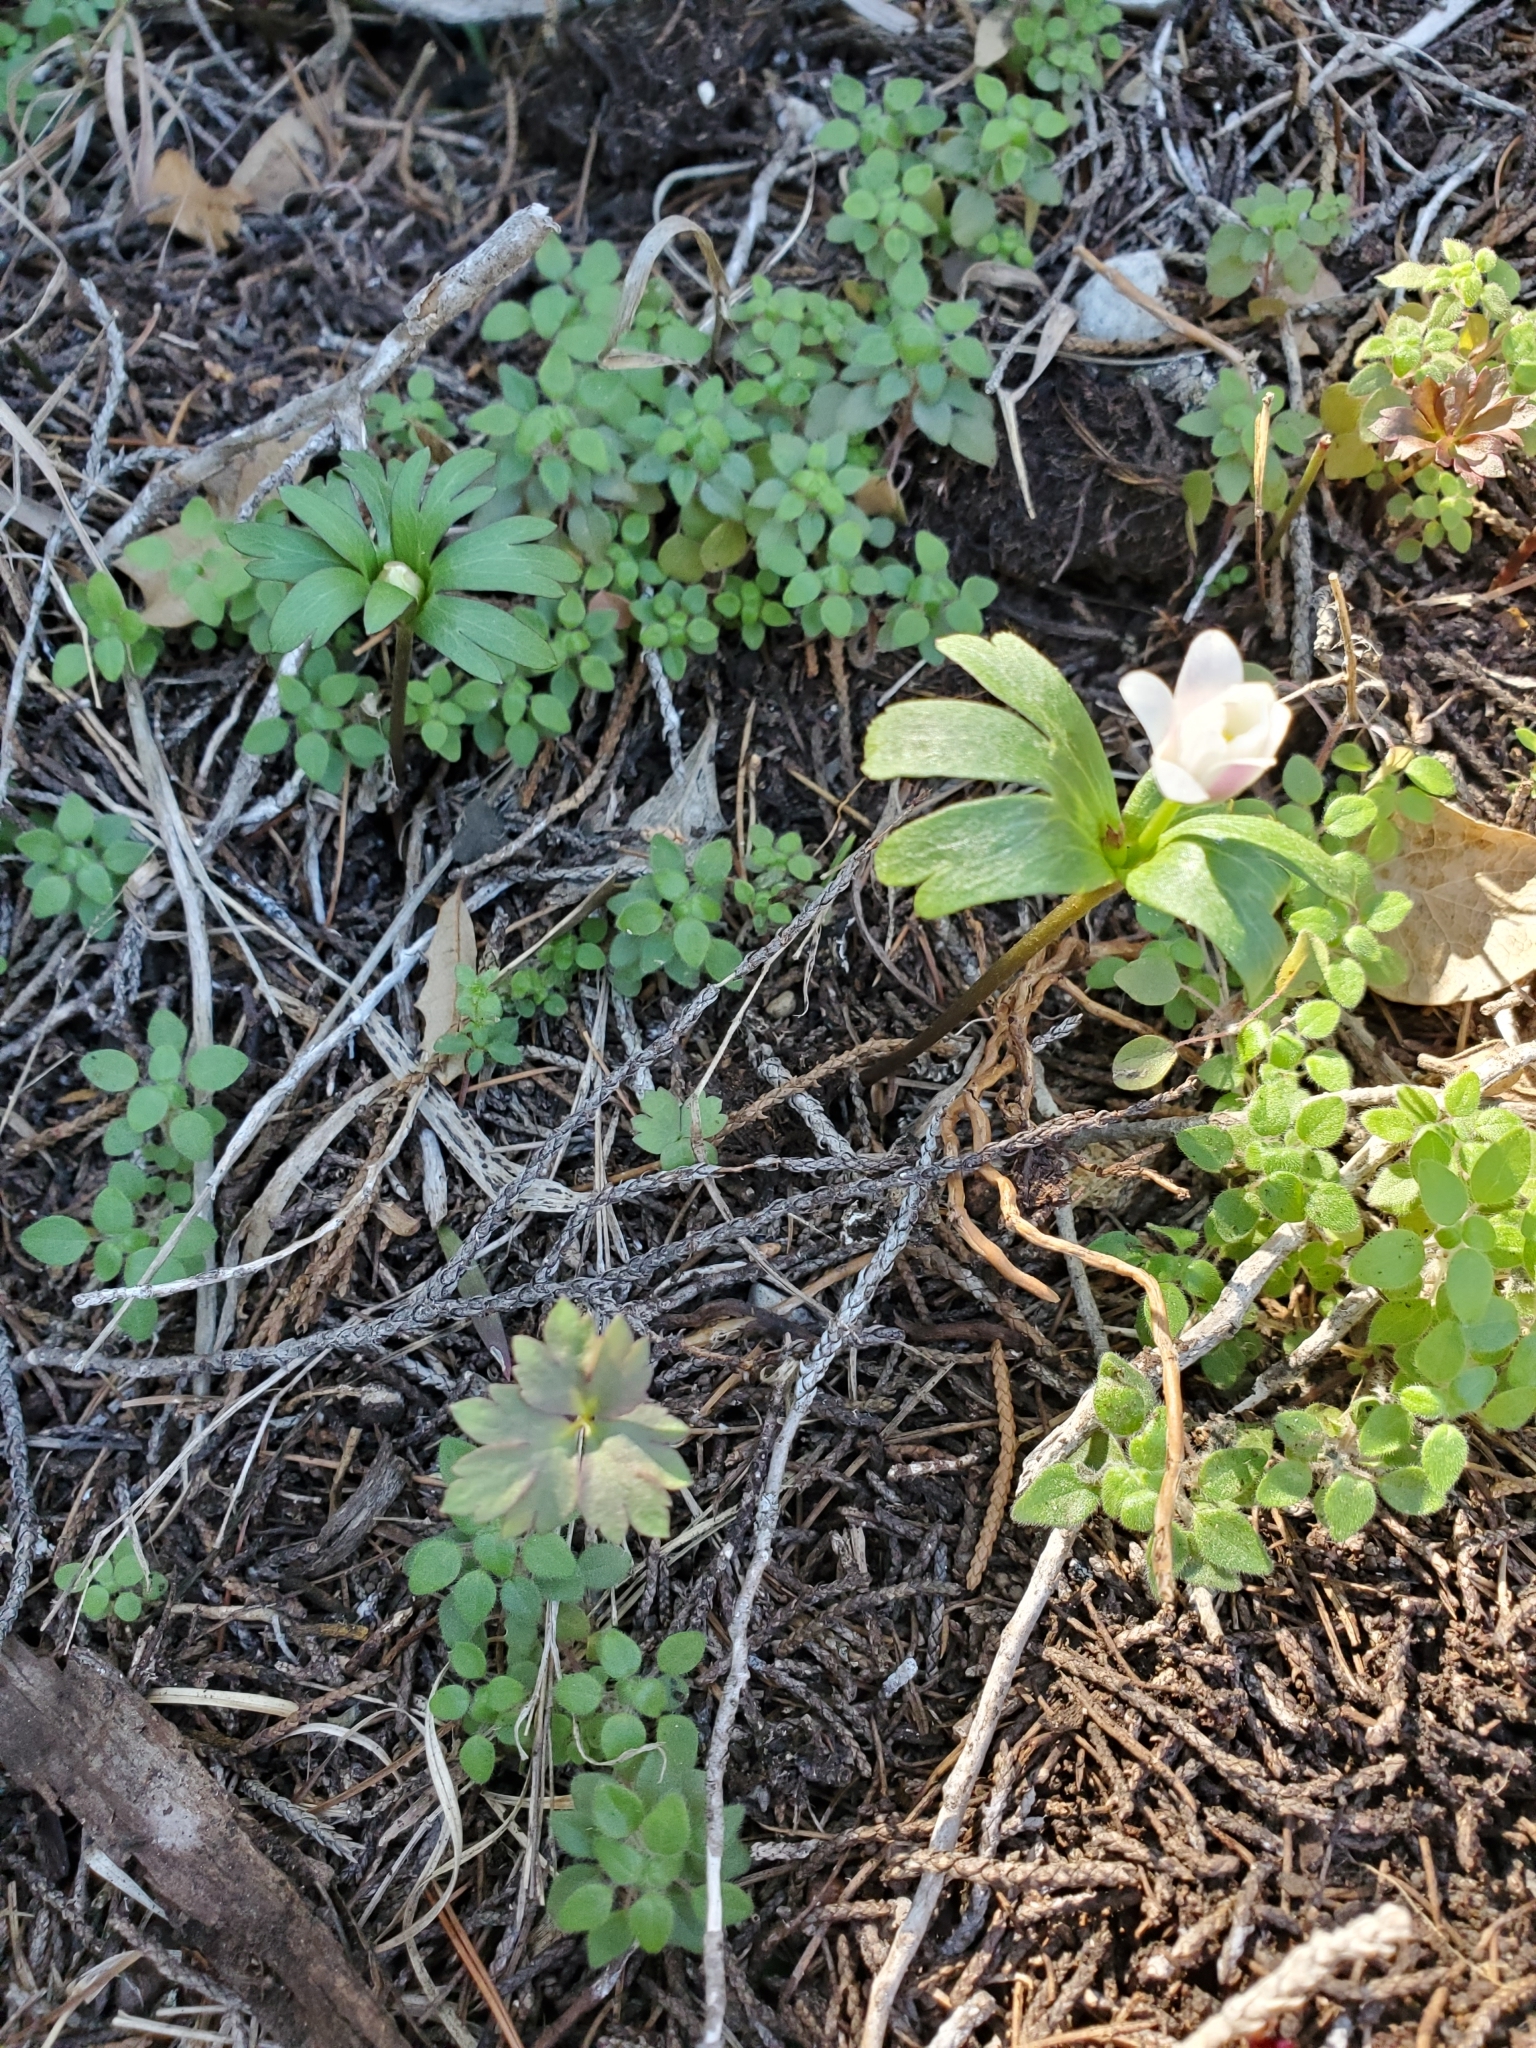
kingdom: Plantae
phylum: Tracheophyta
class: Magnoliopsida
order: Ranunculales
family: Ranunculaceae
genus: Anemone
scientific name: Anemone edwardsiana
